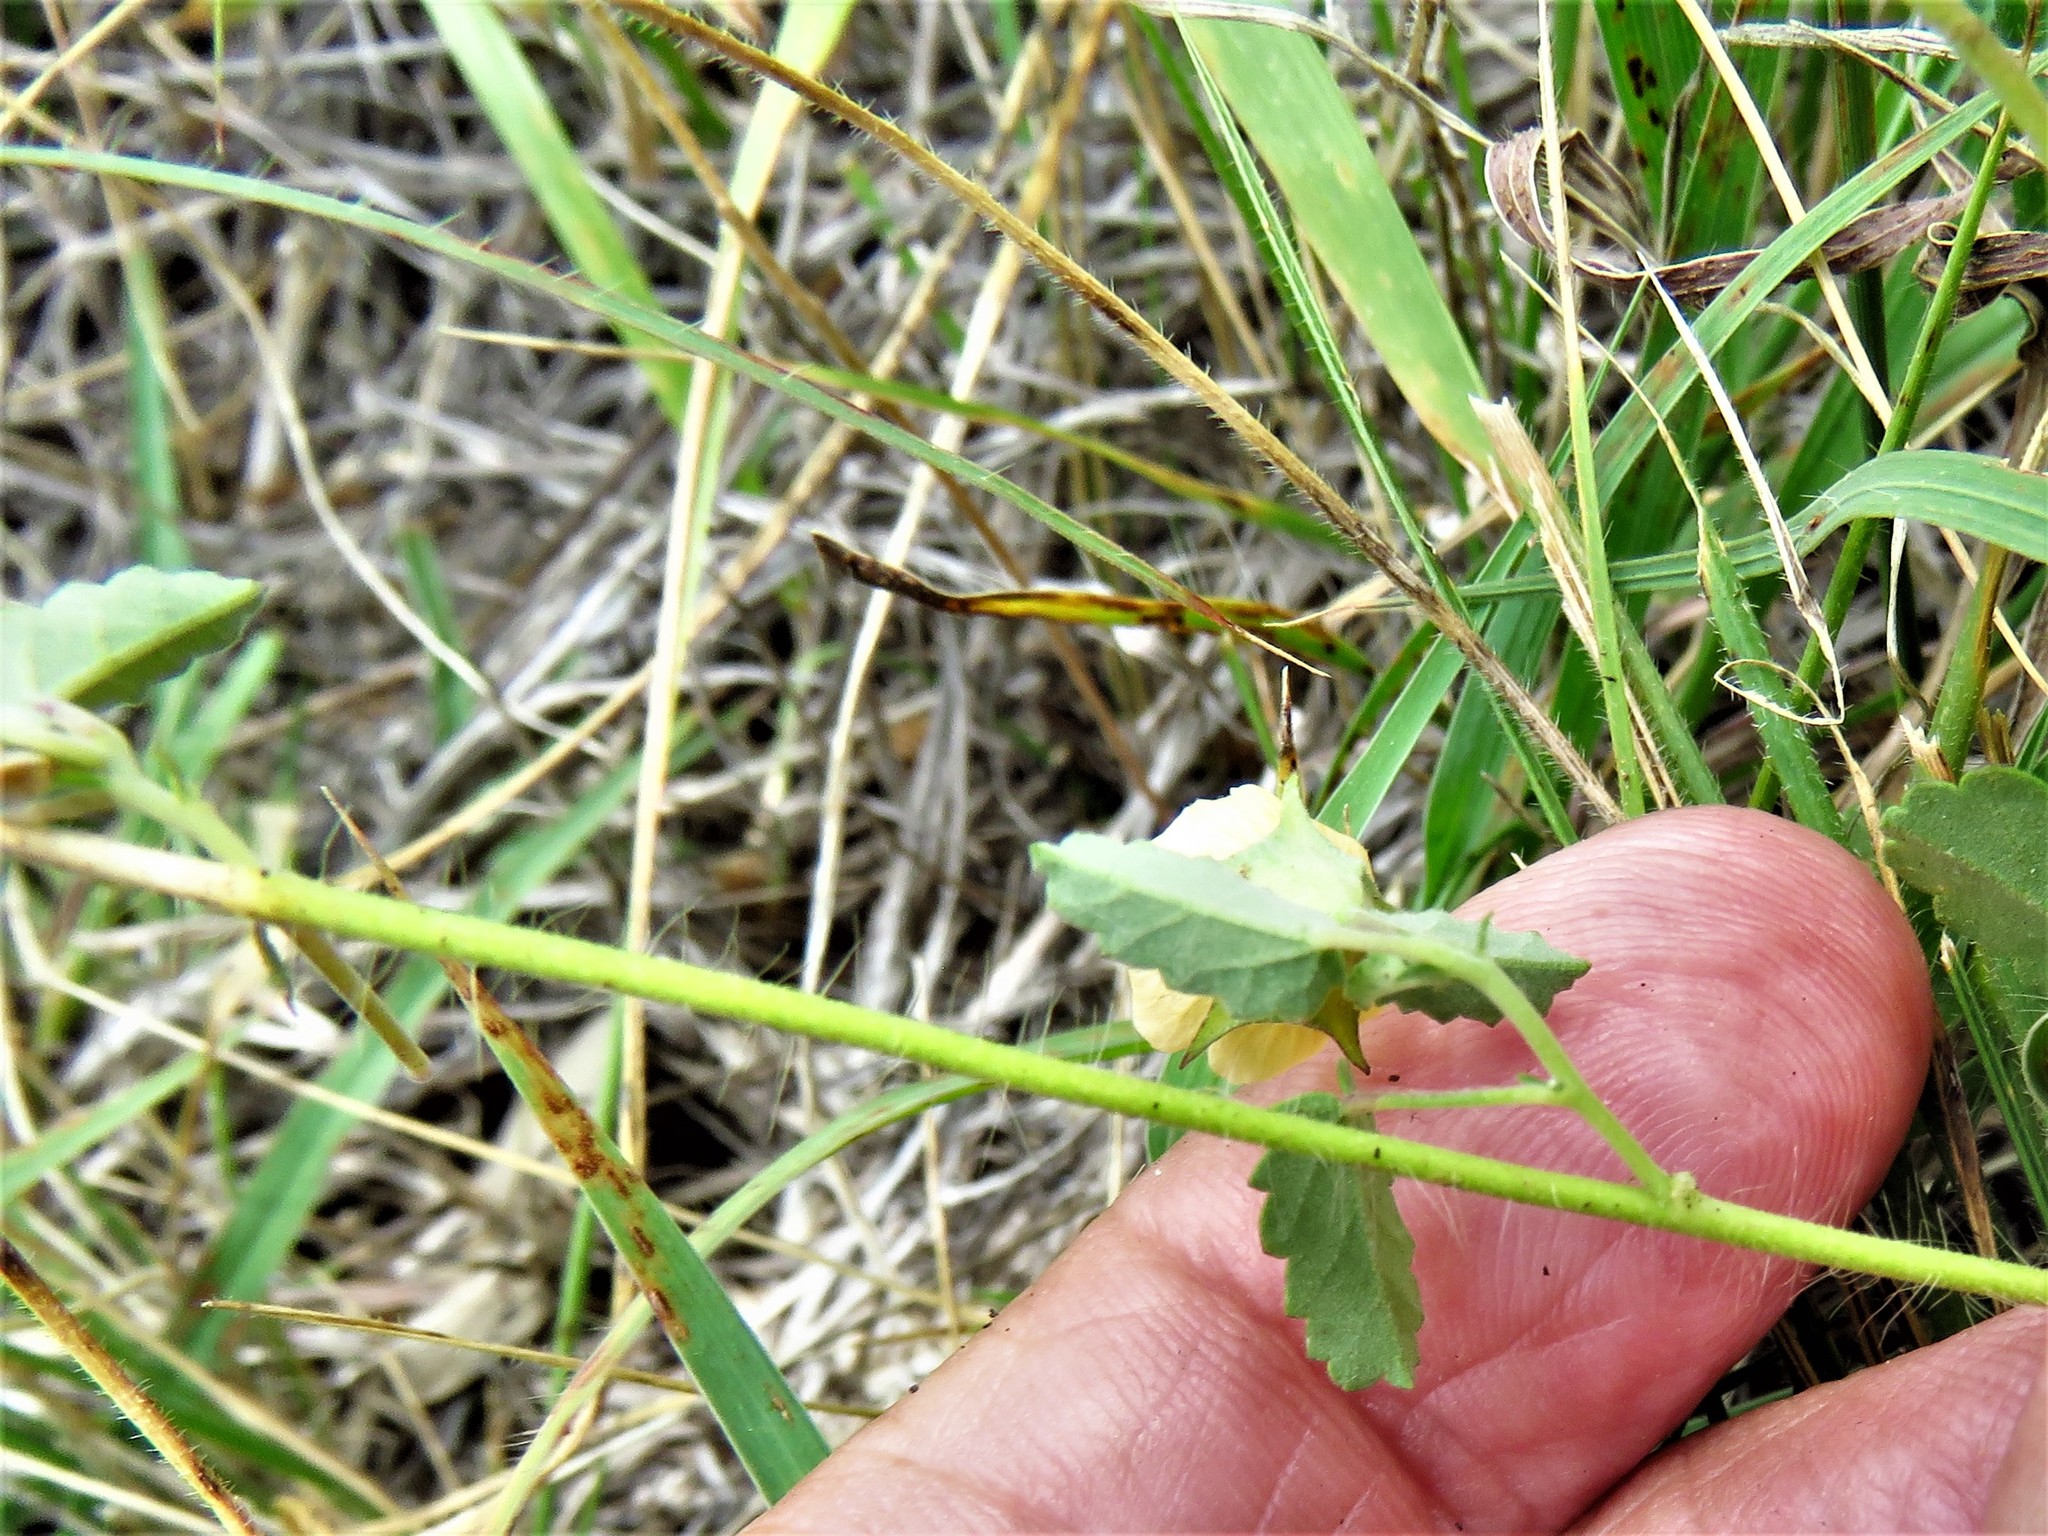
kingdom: Plantae
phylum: Tracheophyta
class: Magnoliopsida
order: Malvales
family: Malvaceae
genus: Sida
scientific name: Sida abutilifolia
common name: Spreading fanpetals
